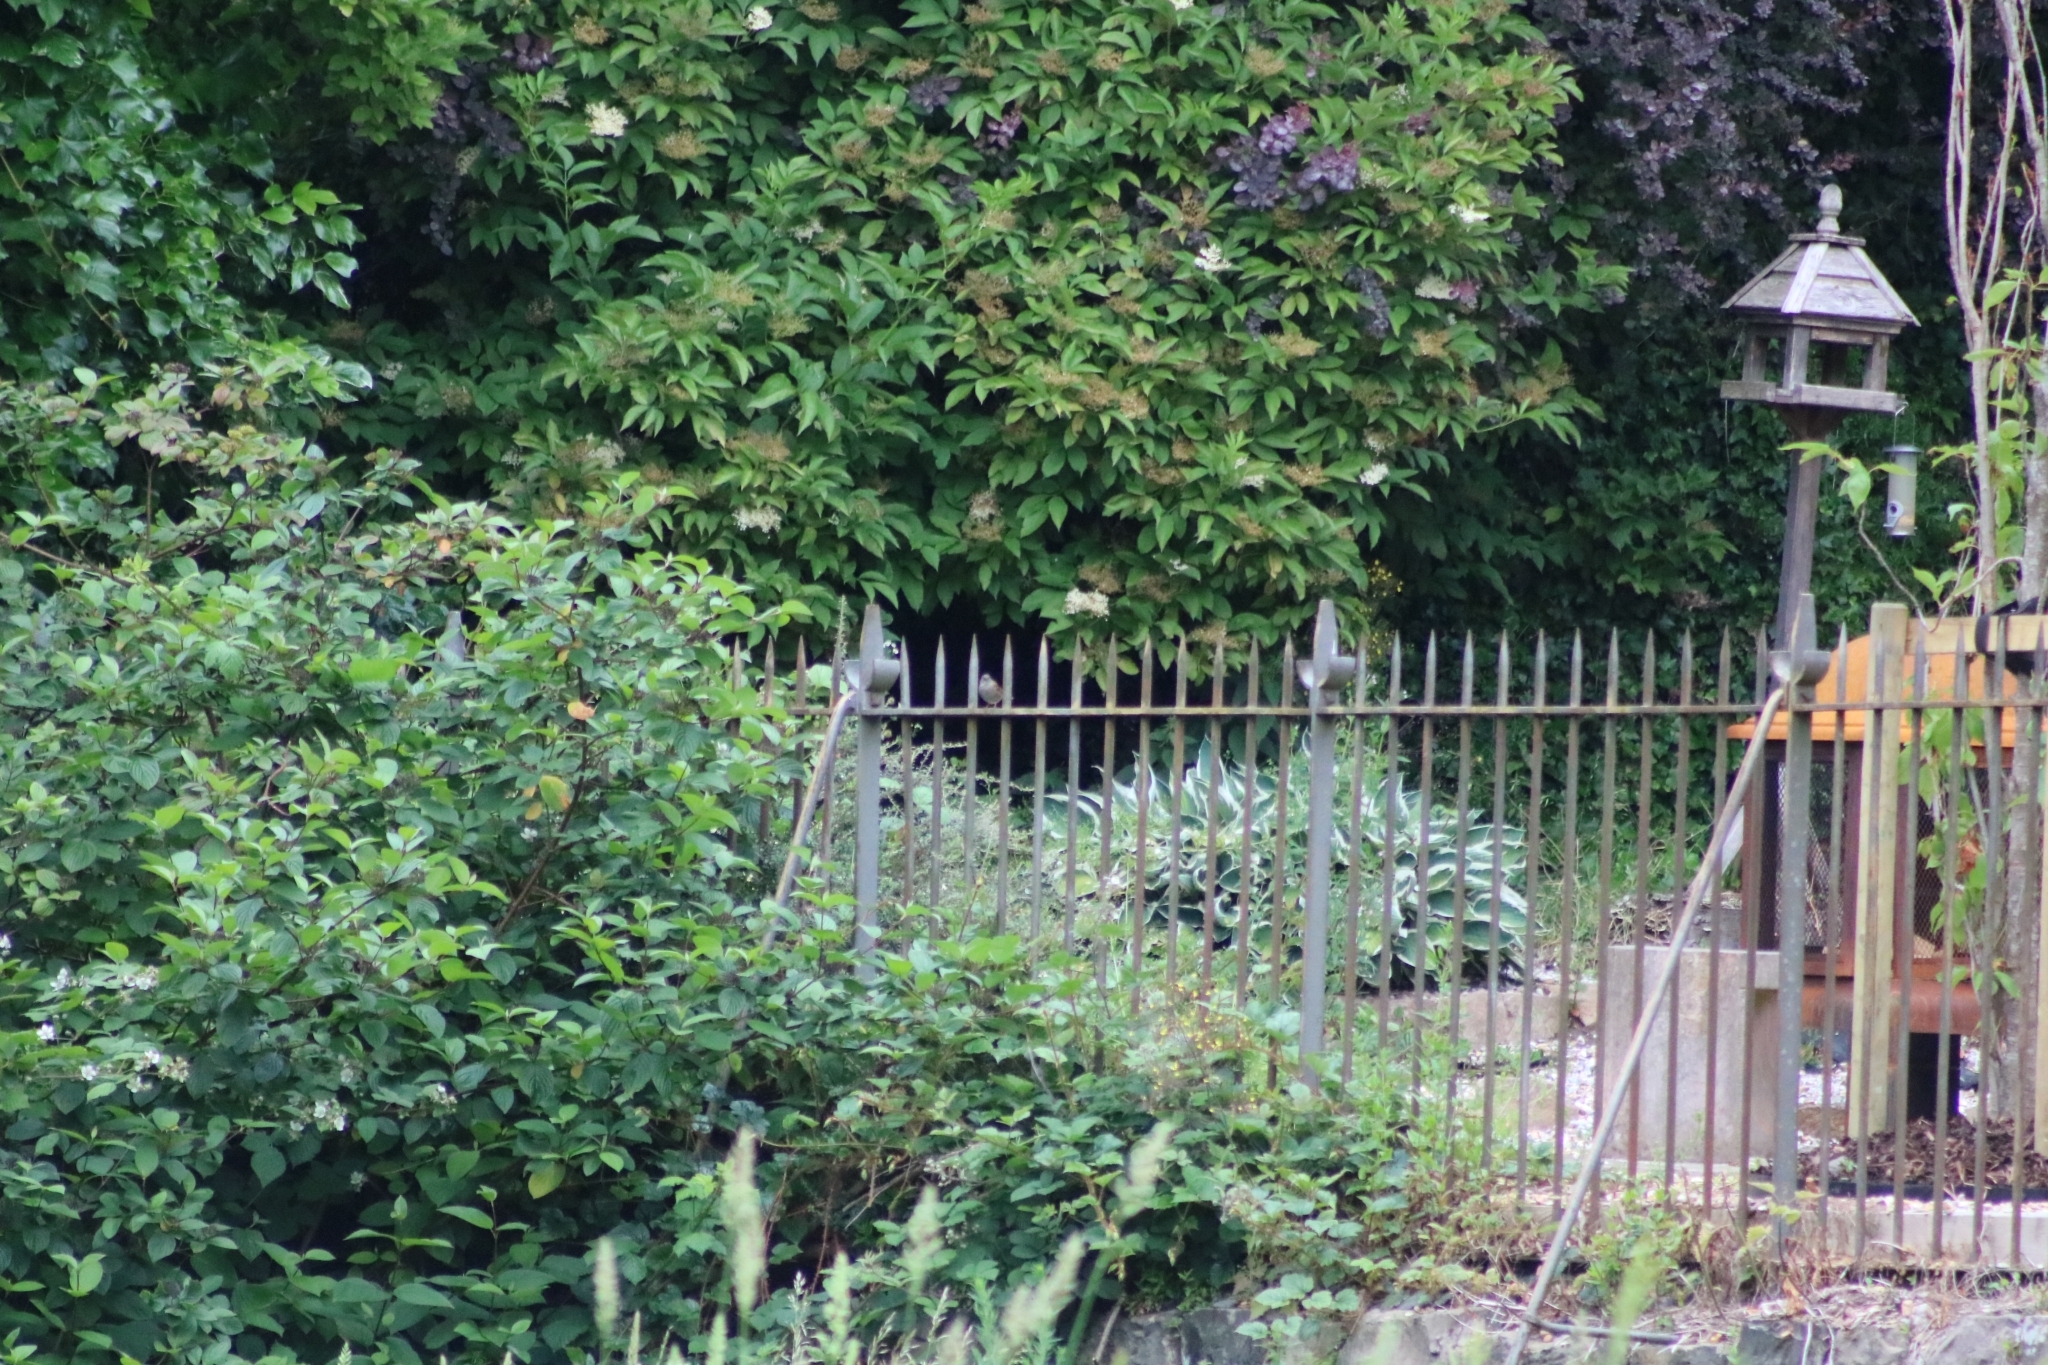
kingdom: Animalia
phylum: Chordata
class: Aves
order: Passeriformes
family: Prunellidae
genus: Prunella
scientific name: Prunella modularis
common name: Dunnock
